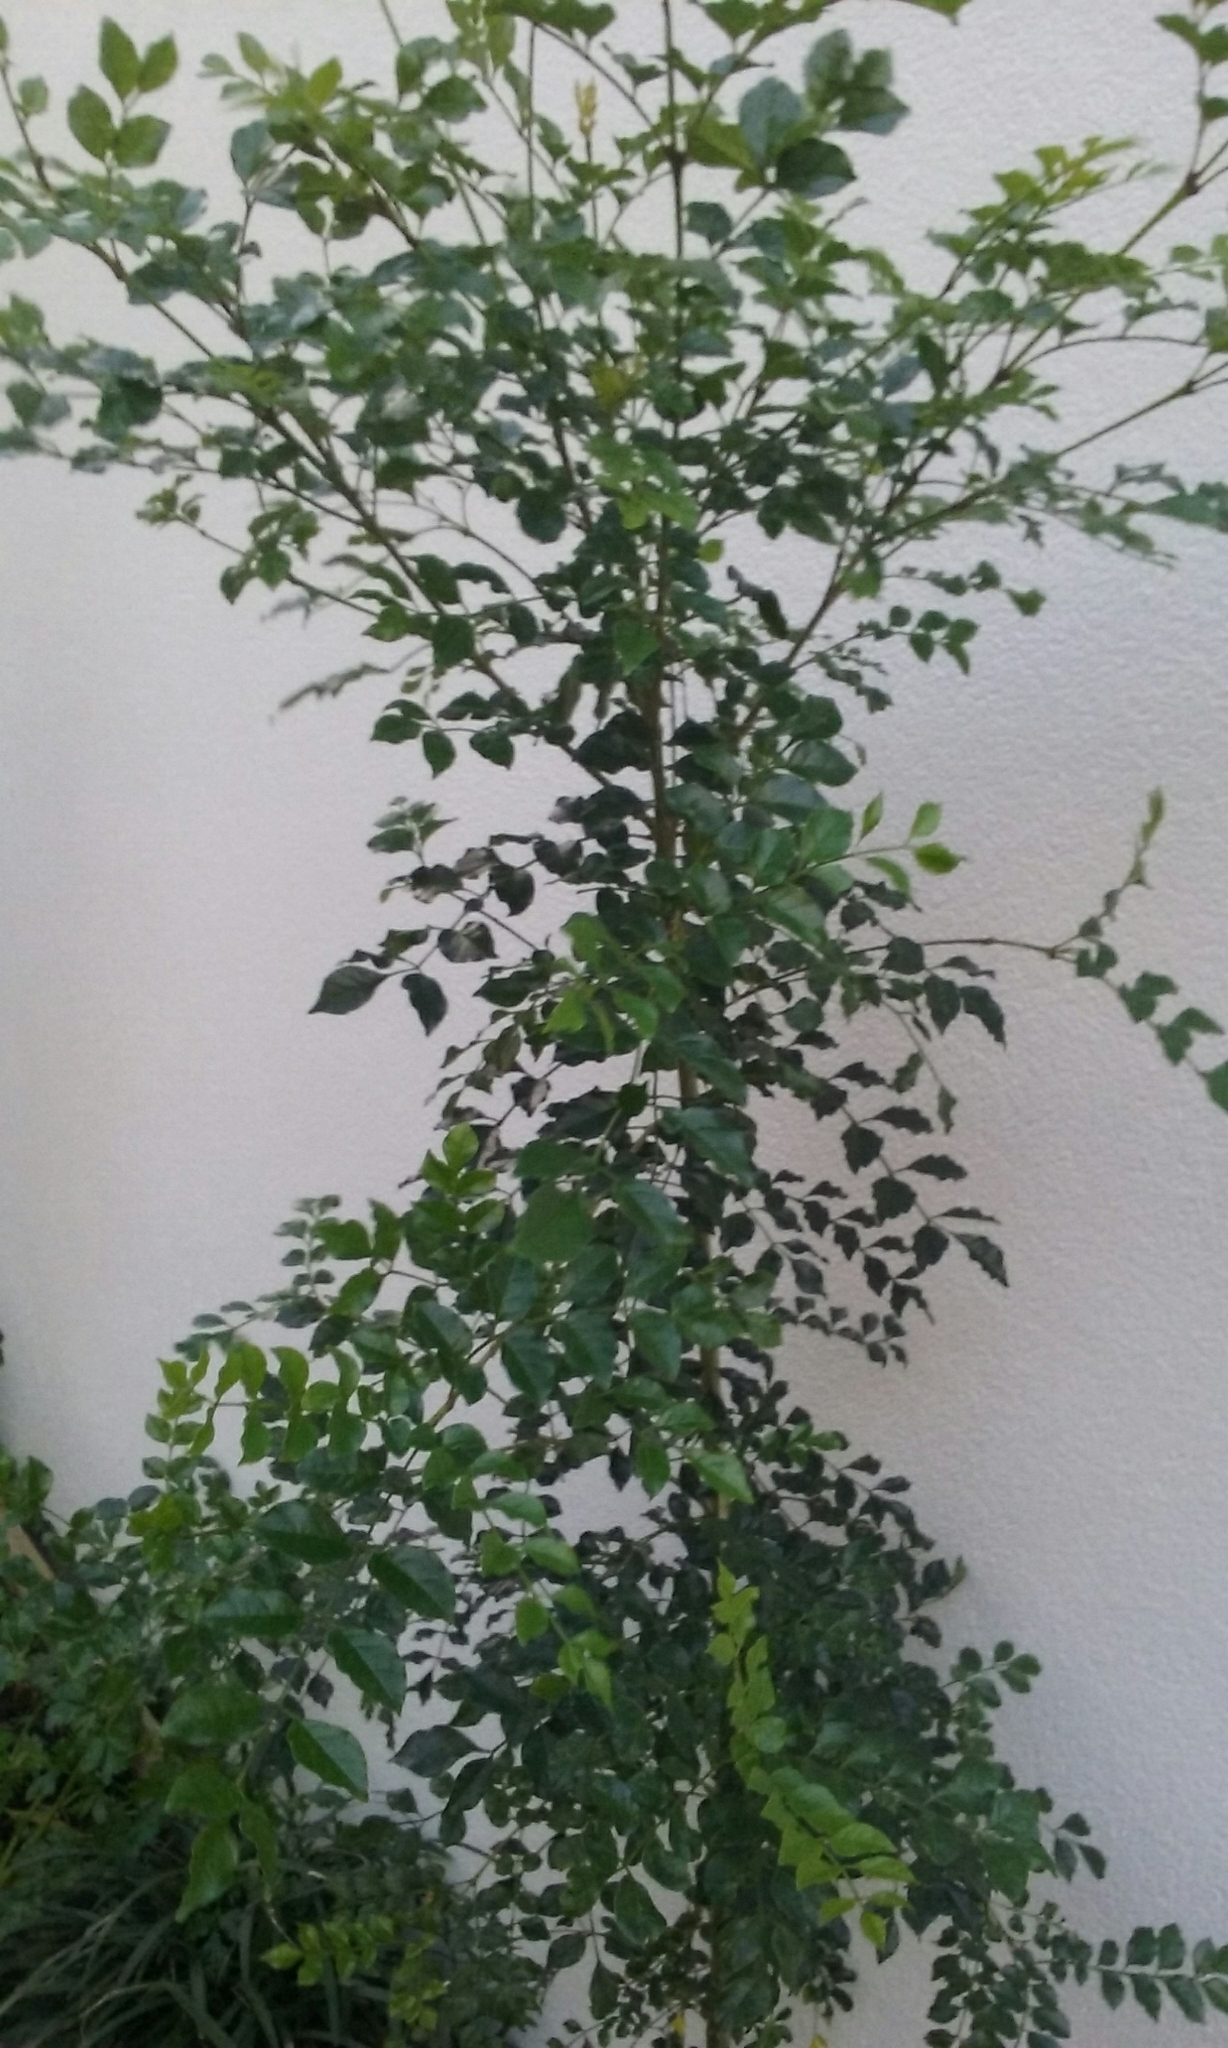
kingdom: Plantae
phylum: Tracheophyta
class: Magnoliopsida
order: Lamiales
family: Bignoniaceae
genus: Tecomaria
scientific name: Tecomaria capensis
